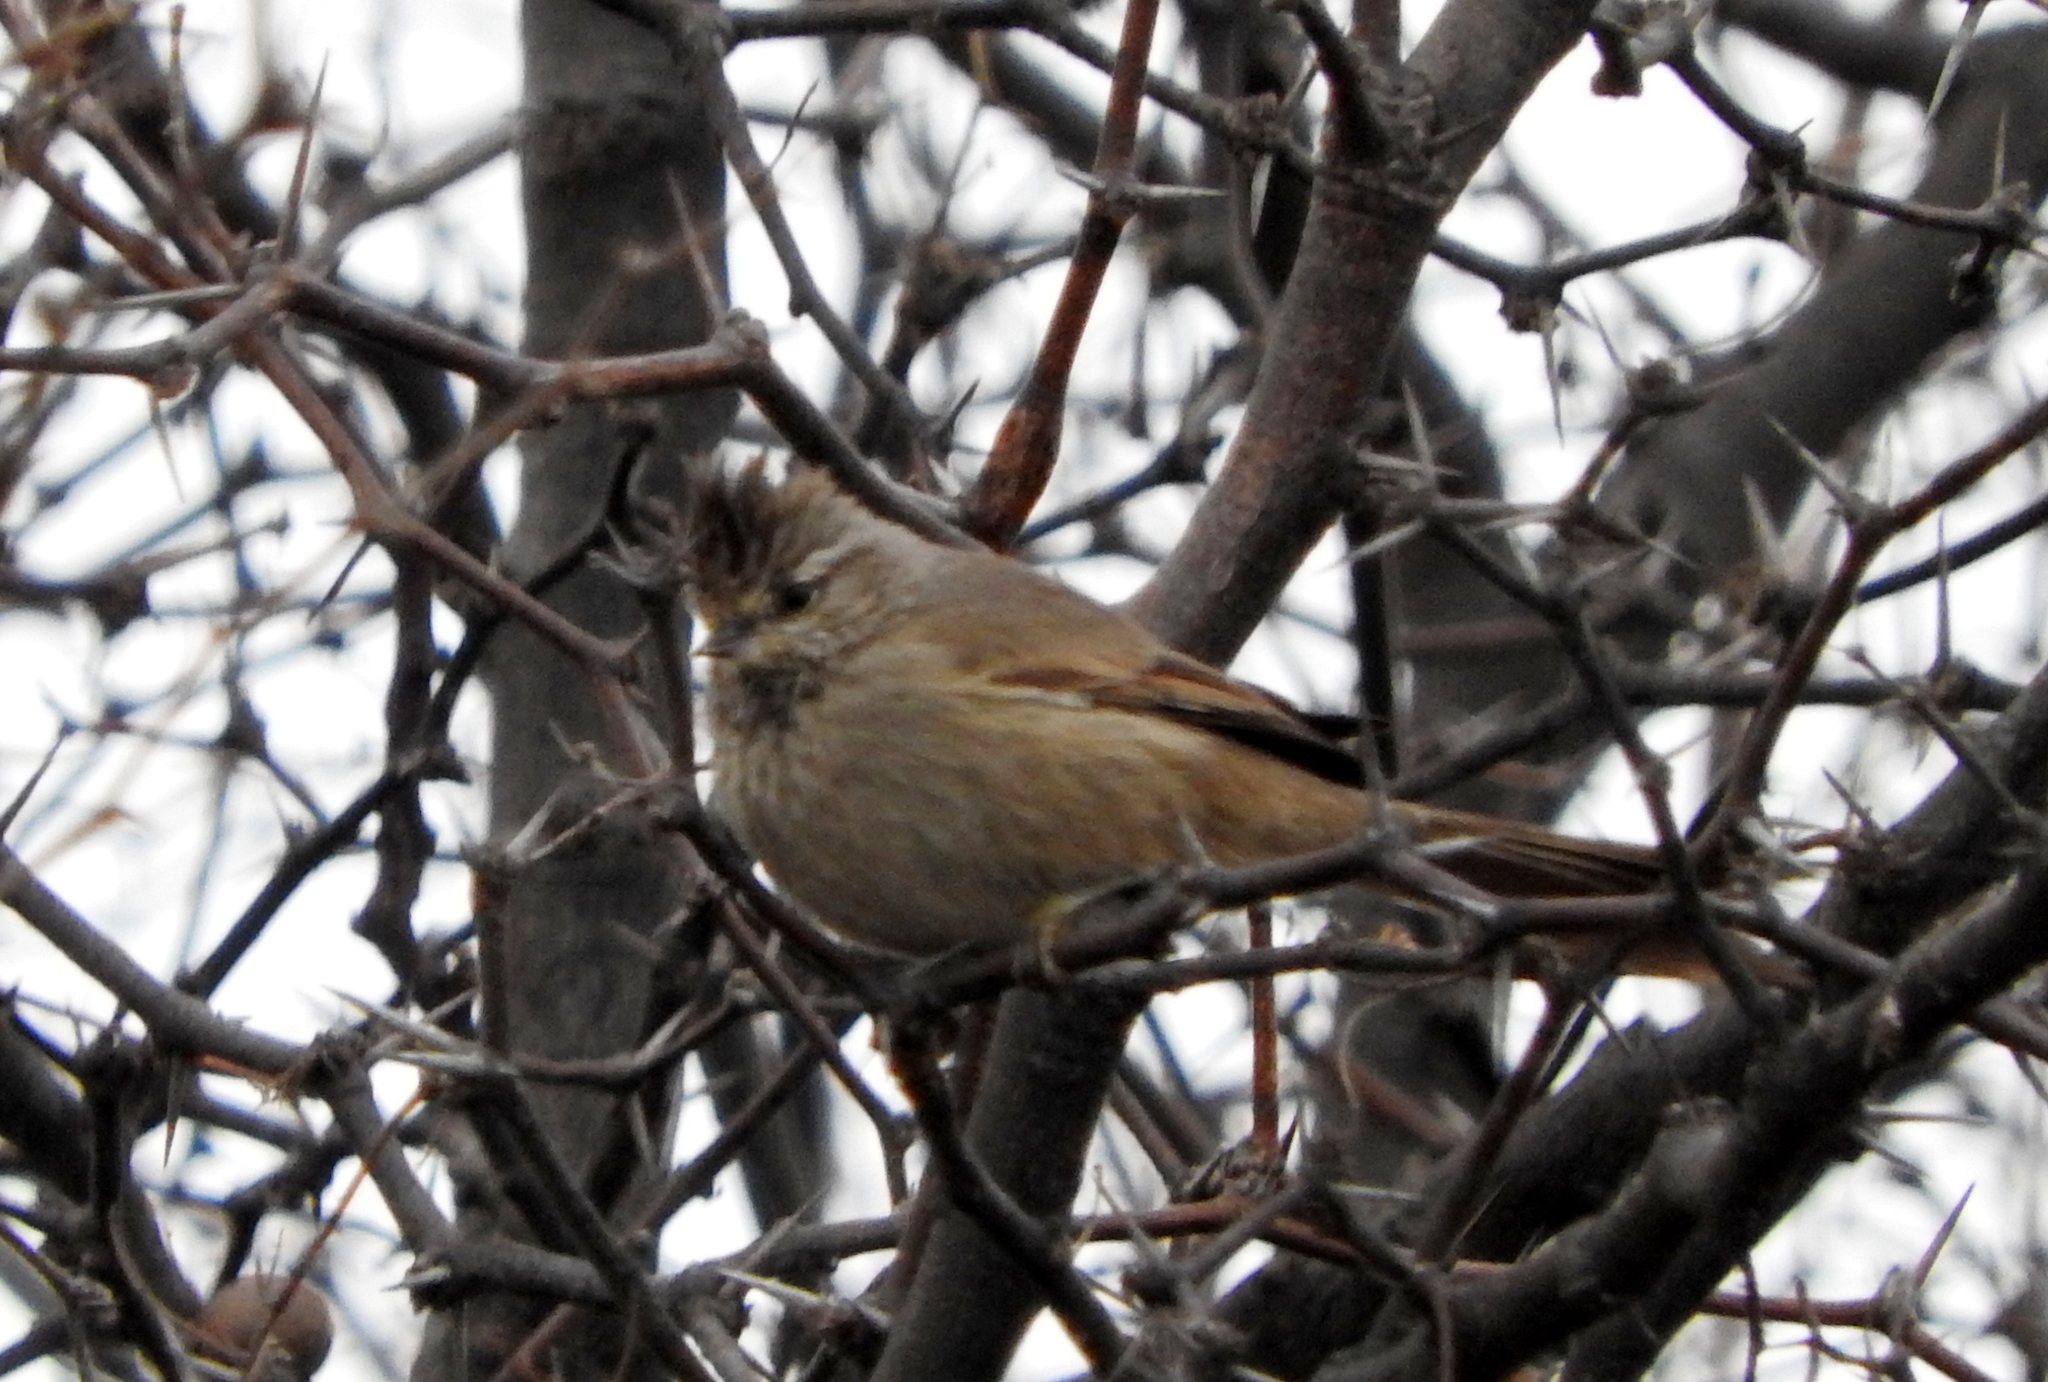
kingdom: Animalia
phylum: Chordata
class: Aves
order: Passeriformes
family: Furnariidae
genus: Leptasthenura
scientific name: Leptasthenura platensis
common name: Tufted tit-spinetail
